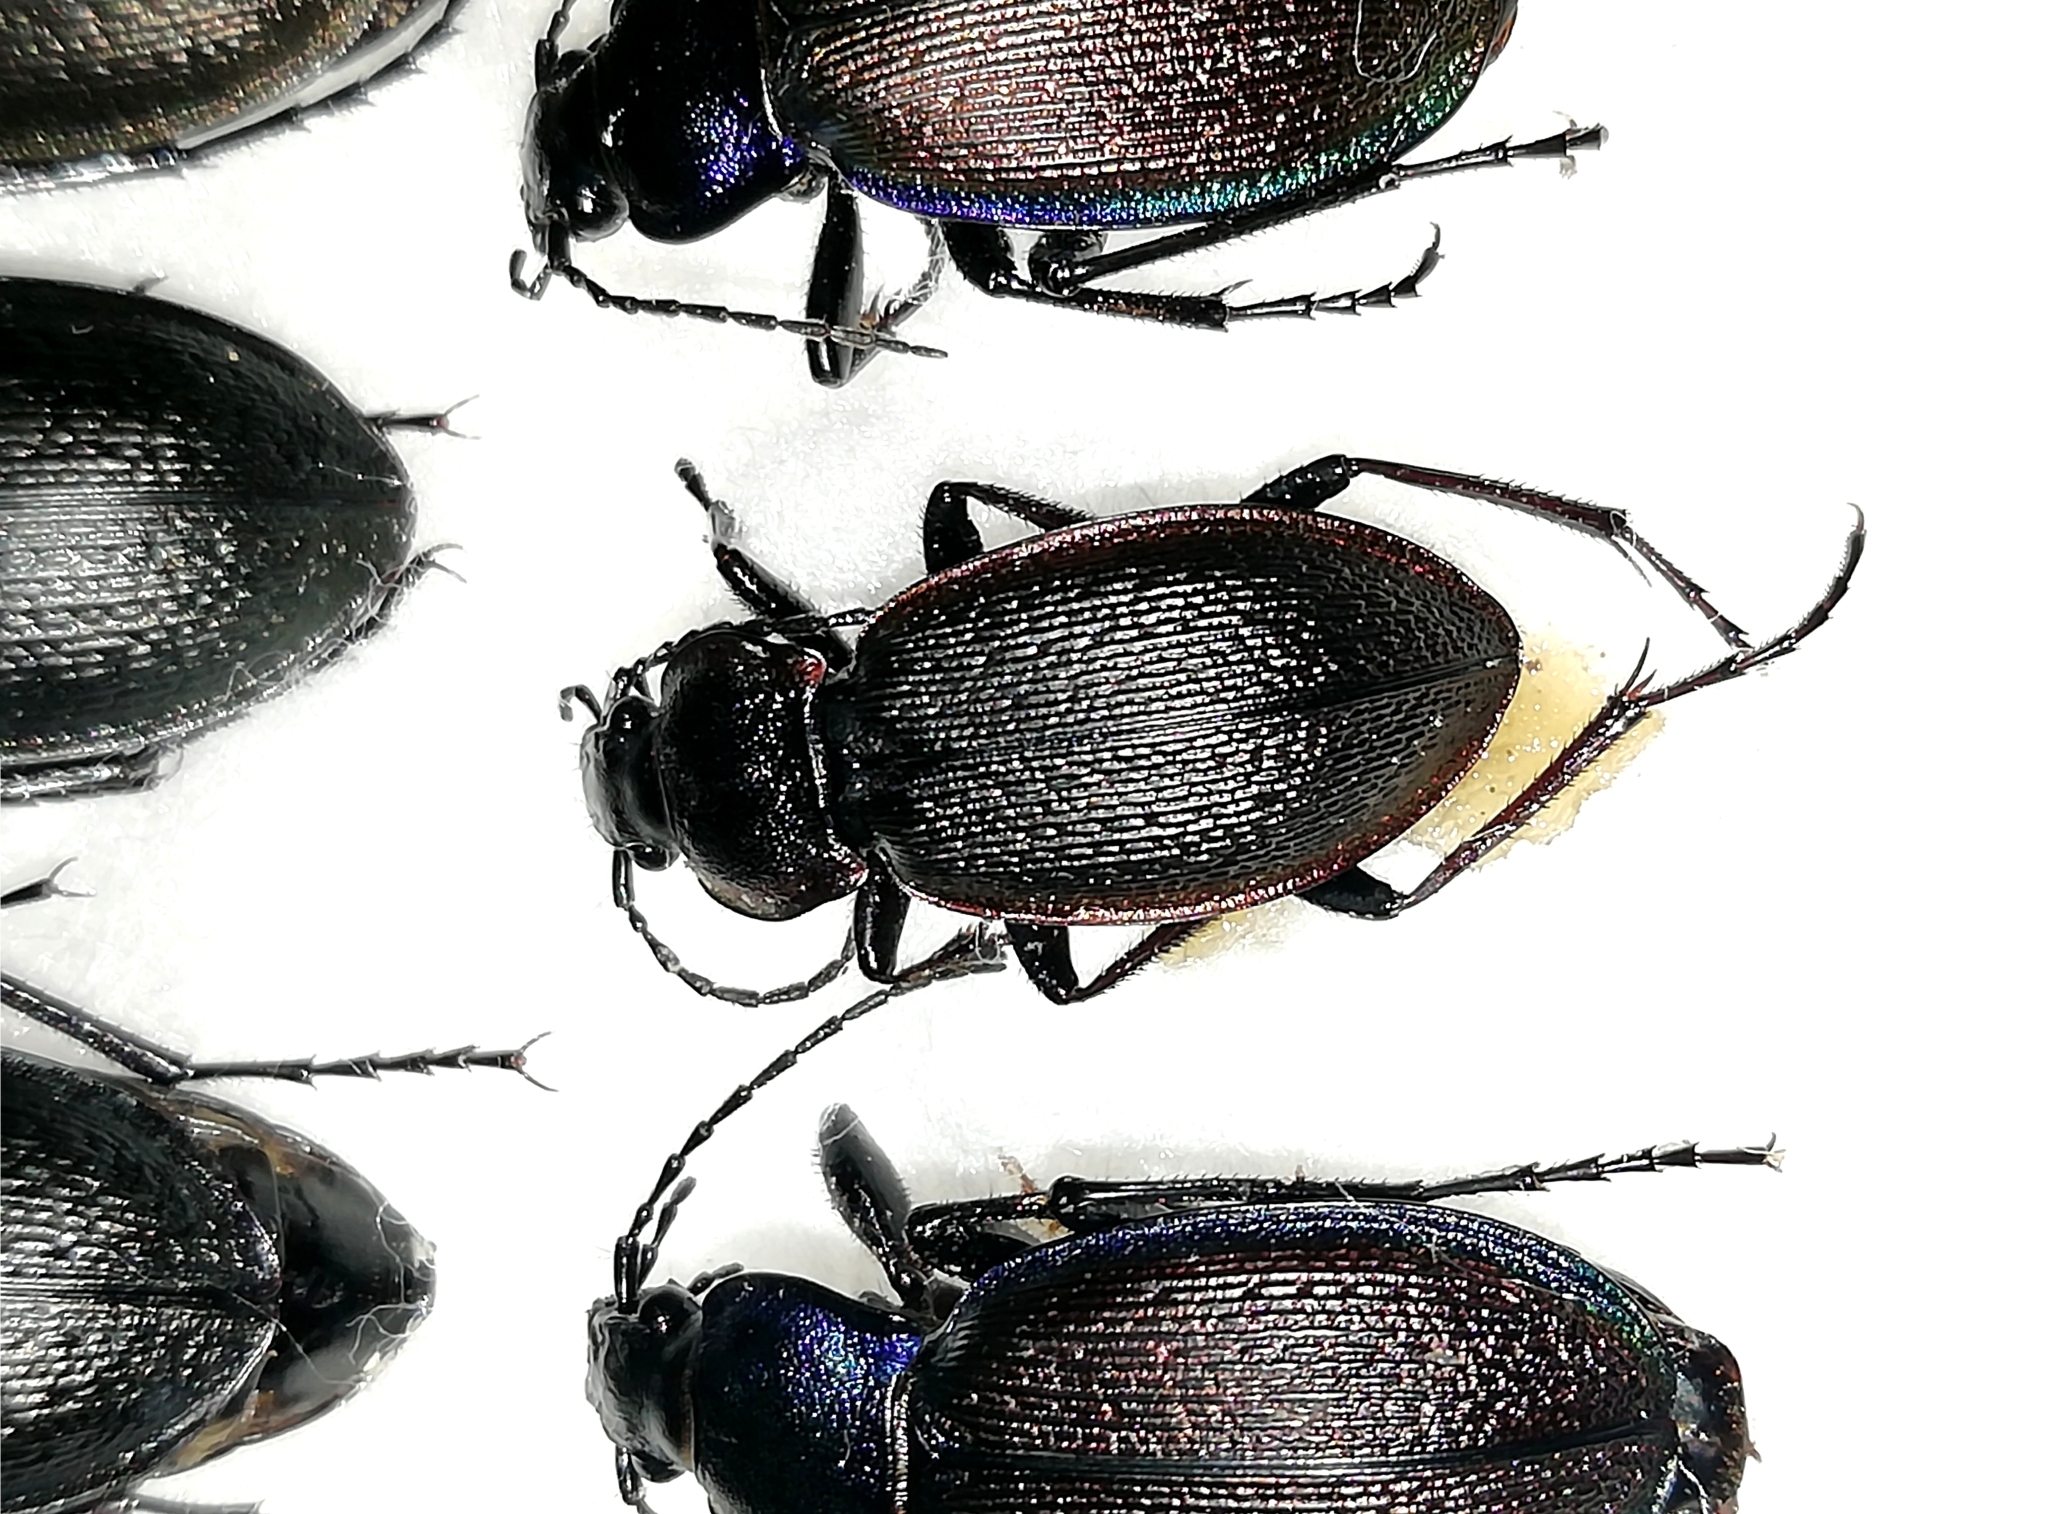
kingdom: Animalia
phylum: Arthropoda
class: Insecta
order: Coleoptera
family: Carabidae
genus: Carabus
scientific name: Carabus henningi
